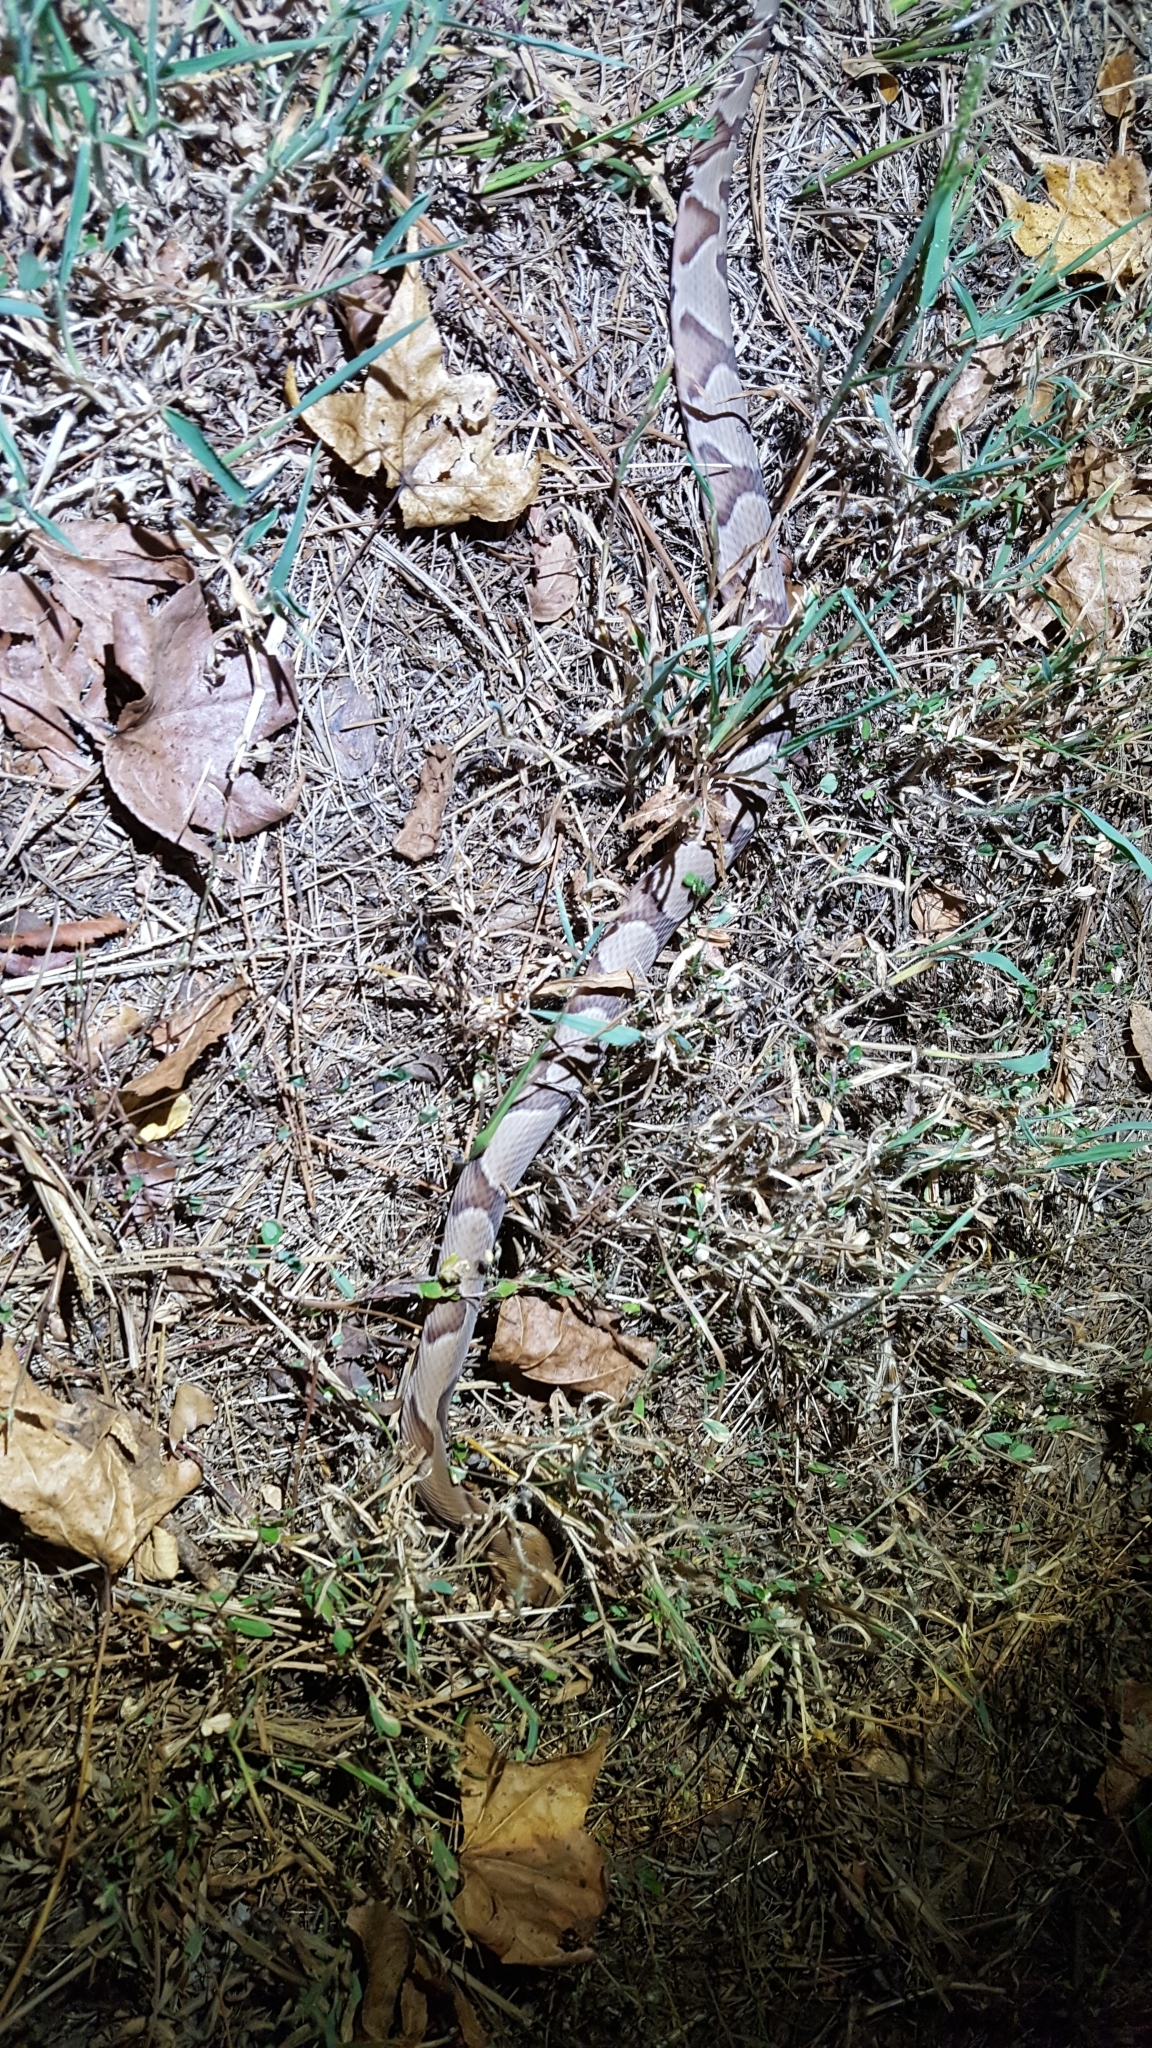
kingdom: Animalia
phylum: Chordata
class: Squamata
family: Viperidae
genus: Agkistrodon
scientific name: Agkistrodon contortrix
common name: Northern copperhead
